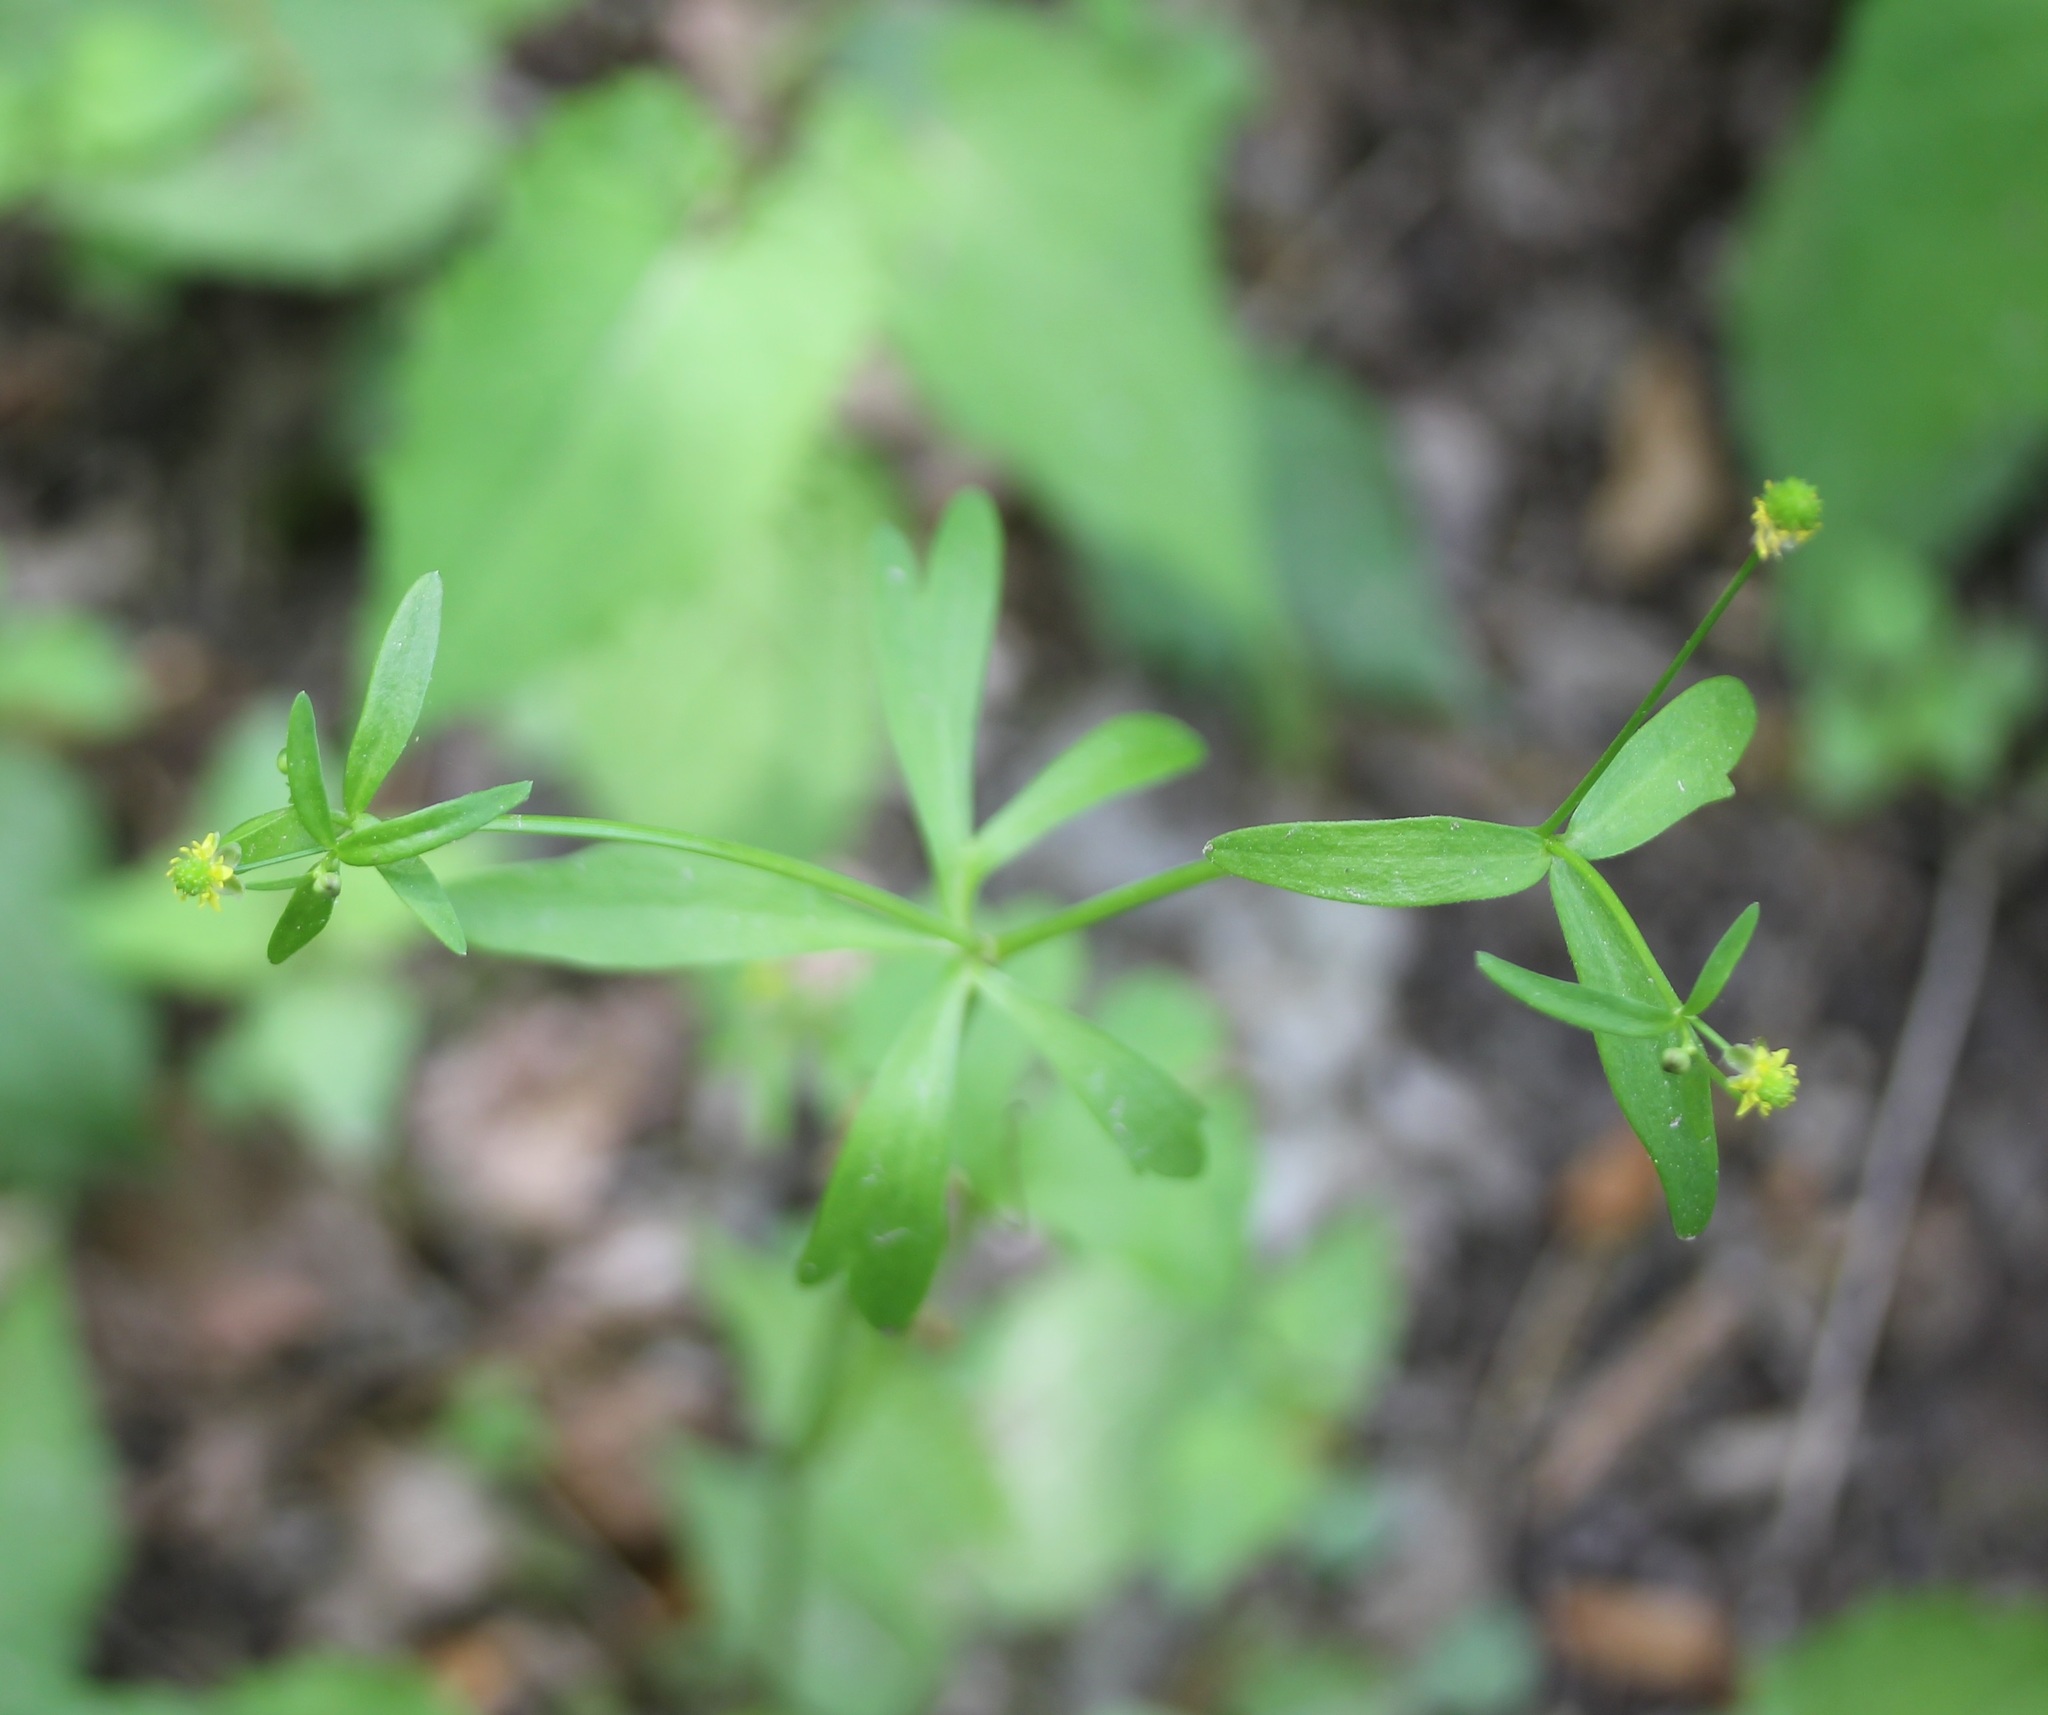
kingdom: Plantae
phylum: Tracheophyta
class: Magnoliopsida
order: Ranunculales
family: Ranunculaceae
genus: Ranunculus
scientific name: Ranunculus abortivus
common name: Early wood buttercup
